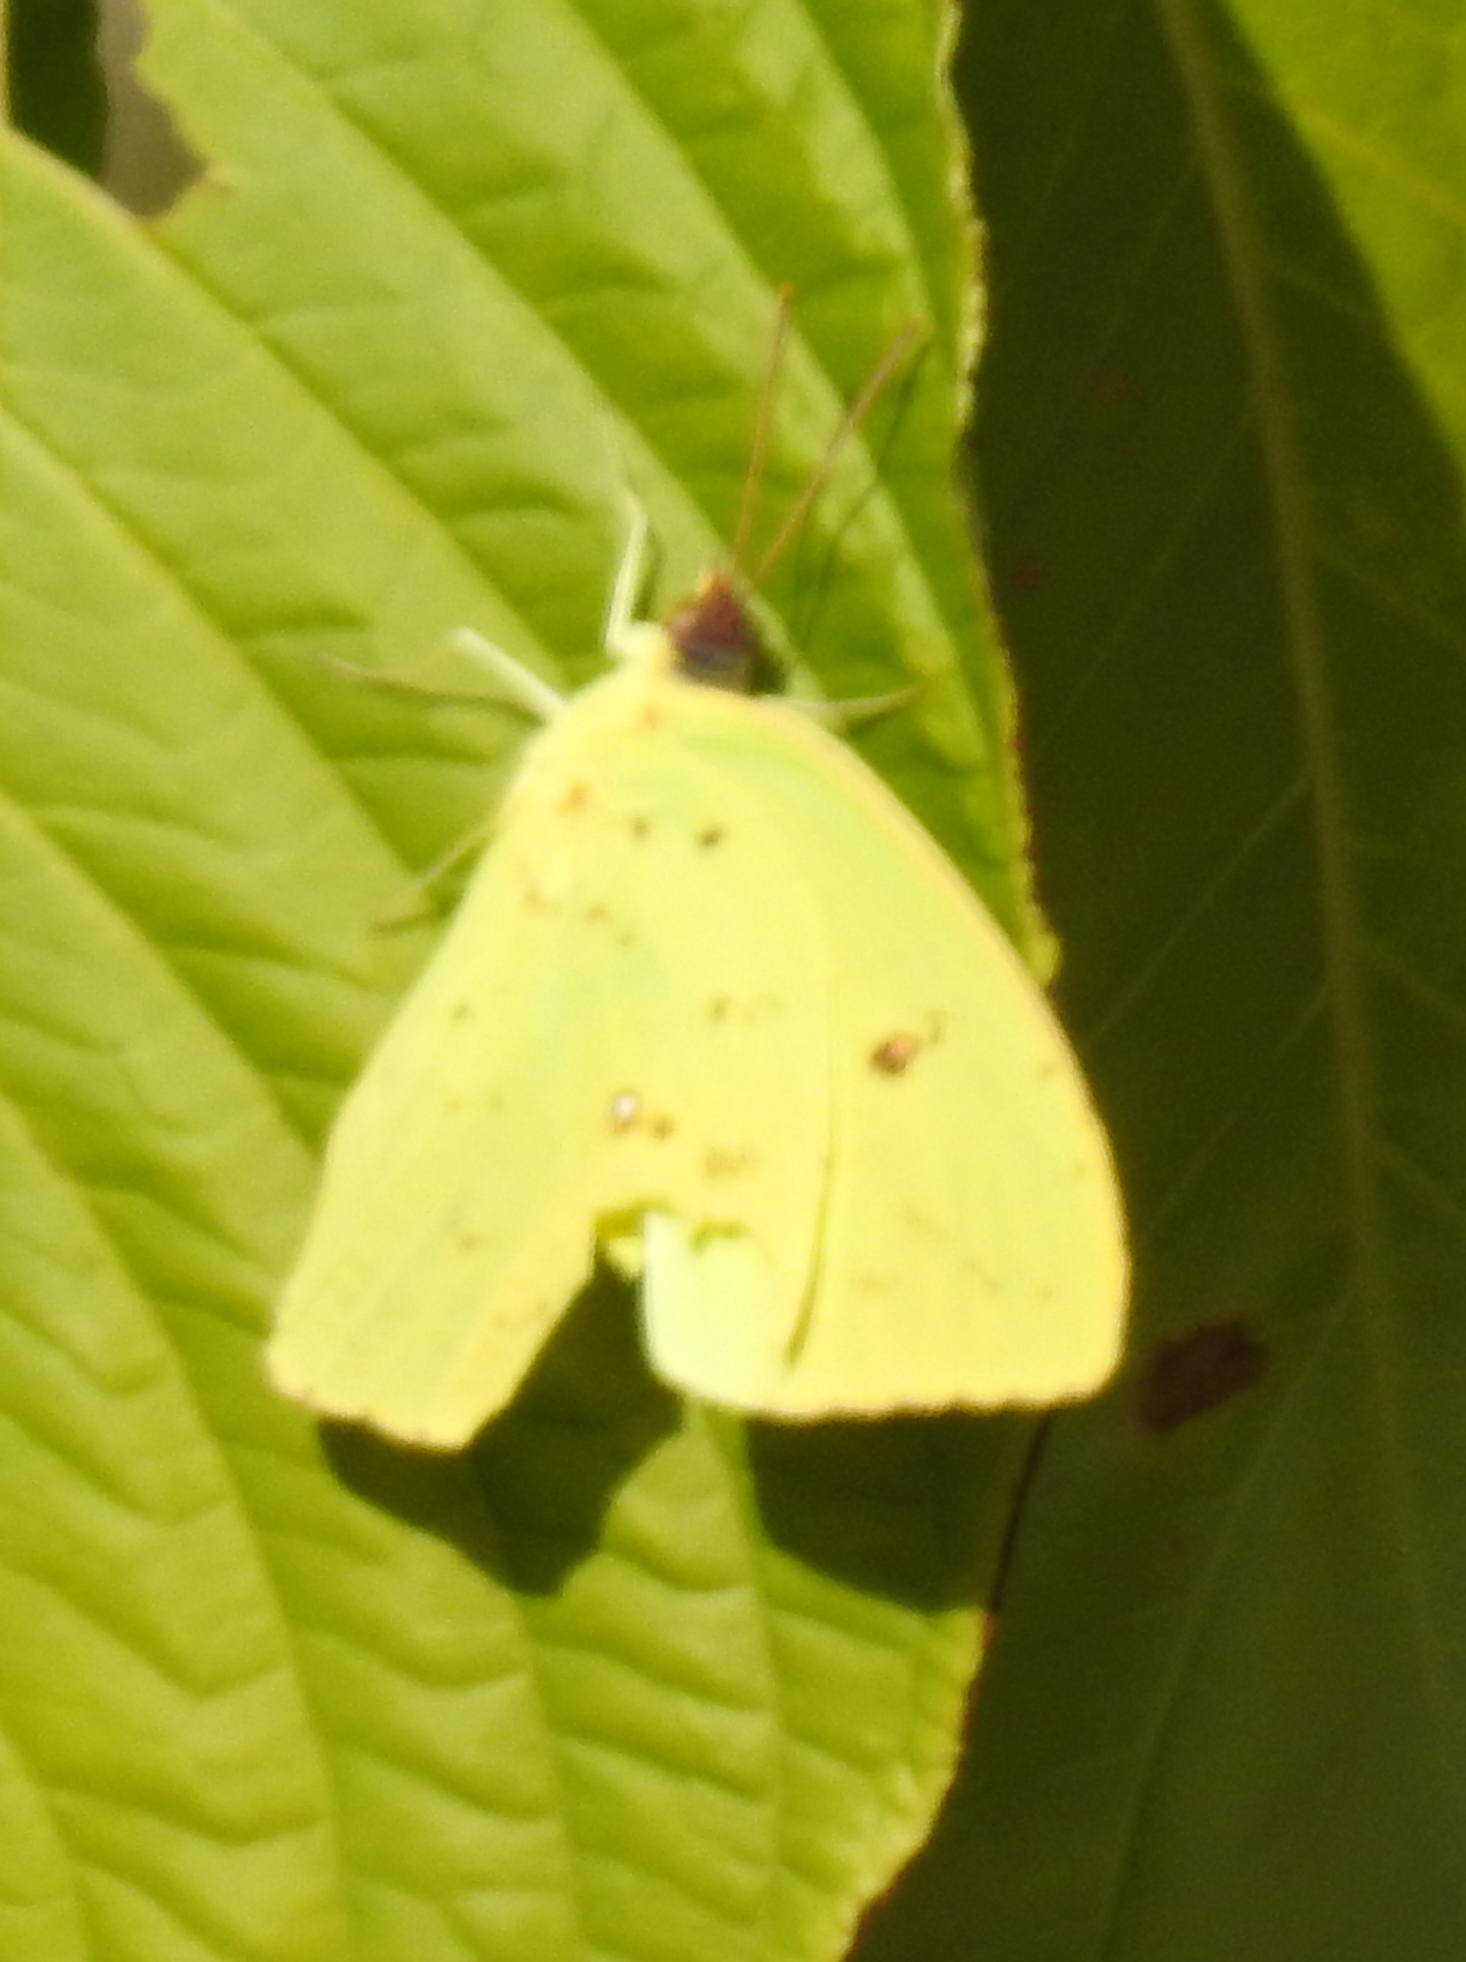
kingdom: Animalia
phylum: Arthropoda
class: Insecta
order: Lepidoptera
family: Pieridae
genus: Phoebis
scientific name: Phoebis sennae
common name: Cloudless sulphur
